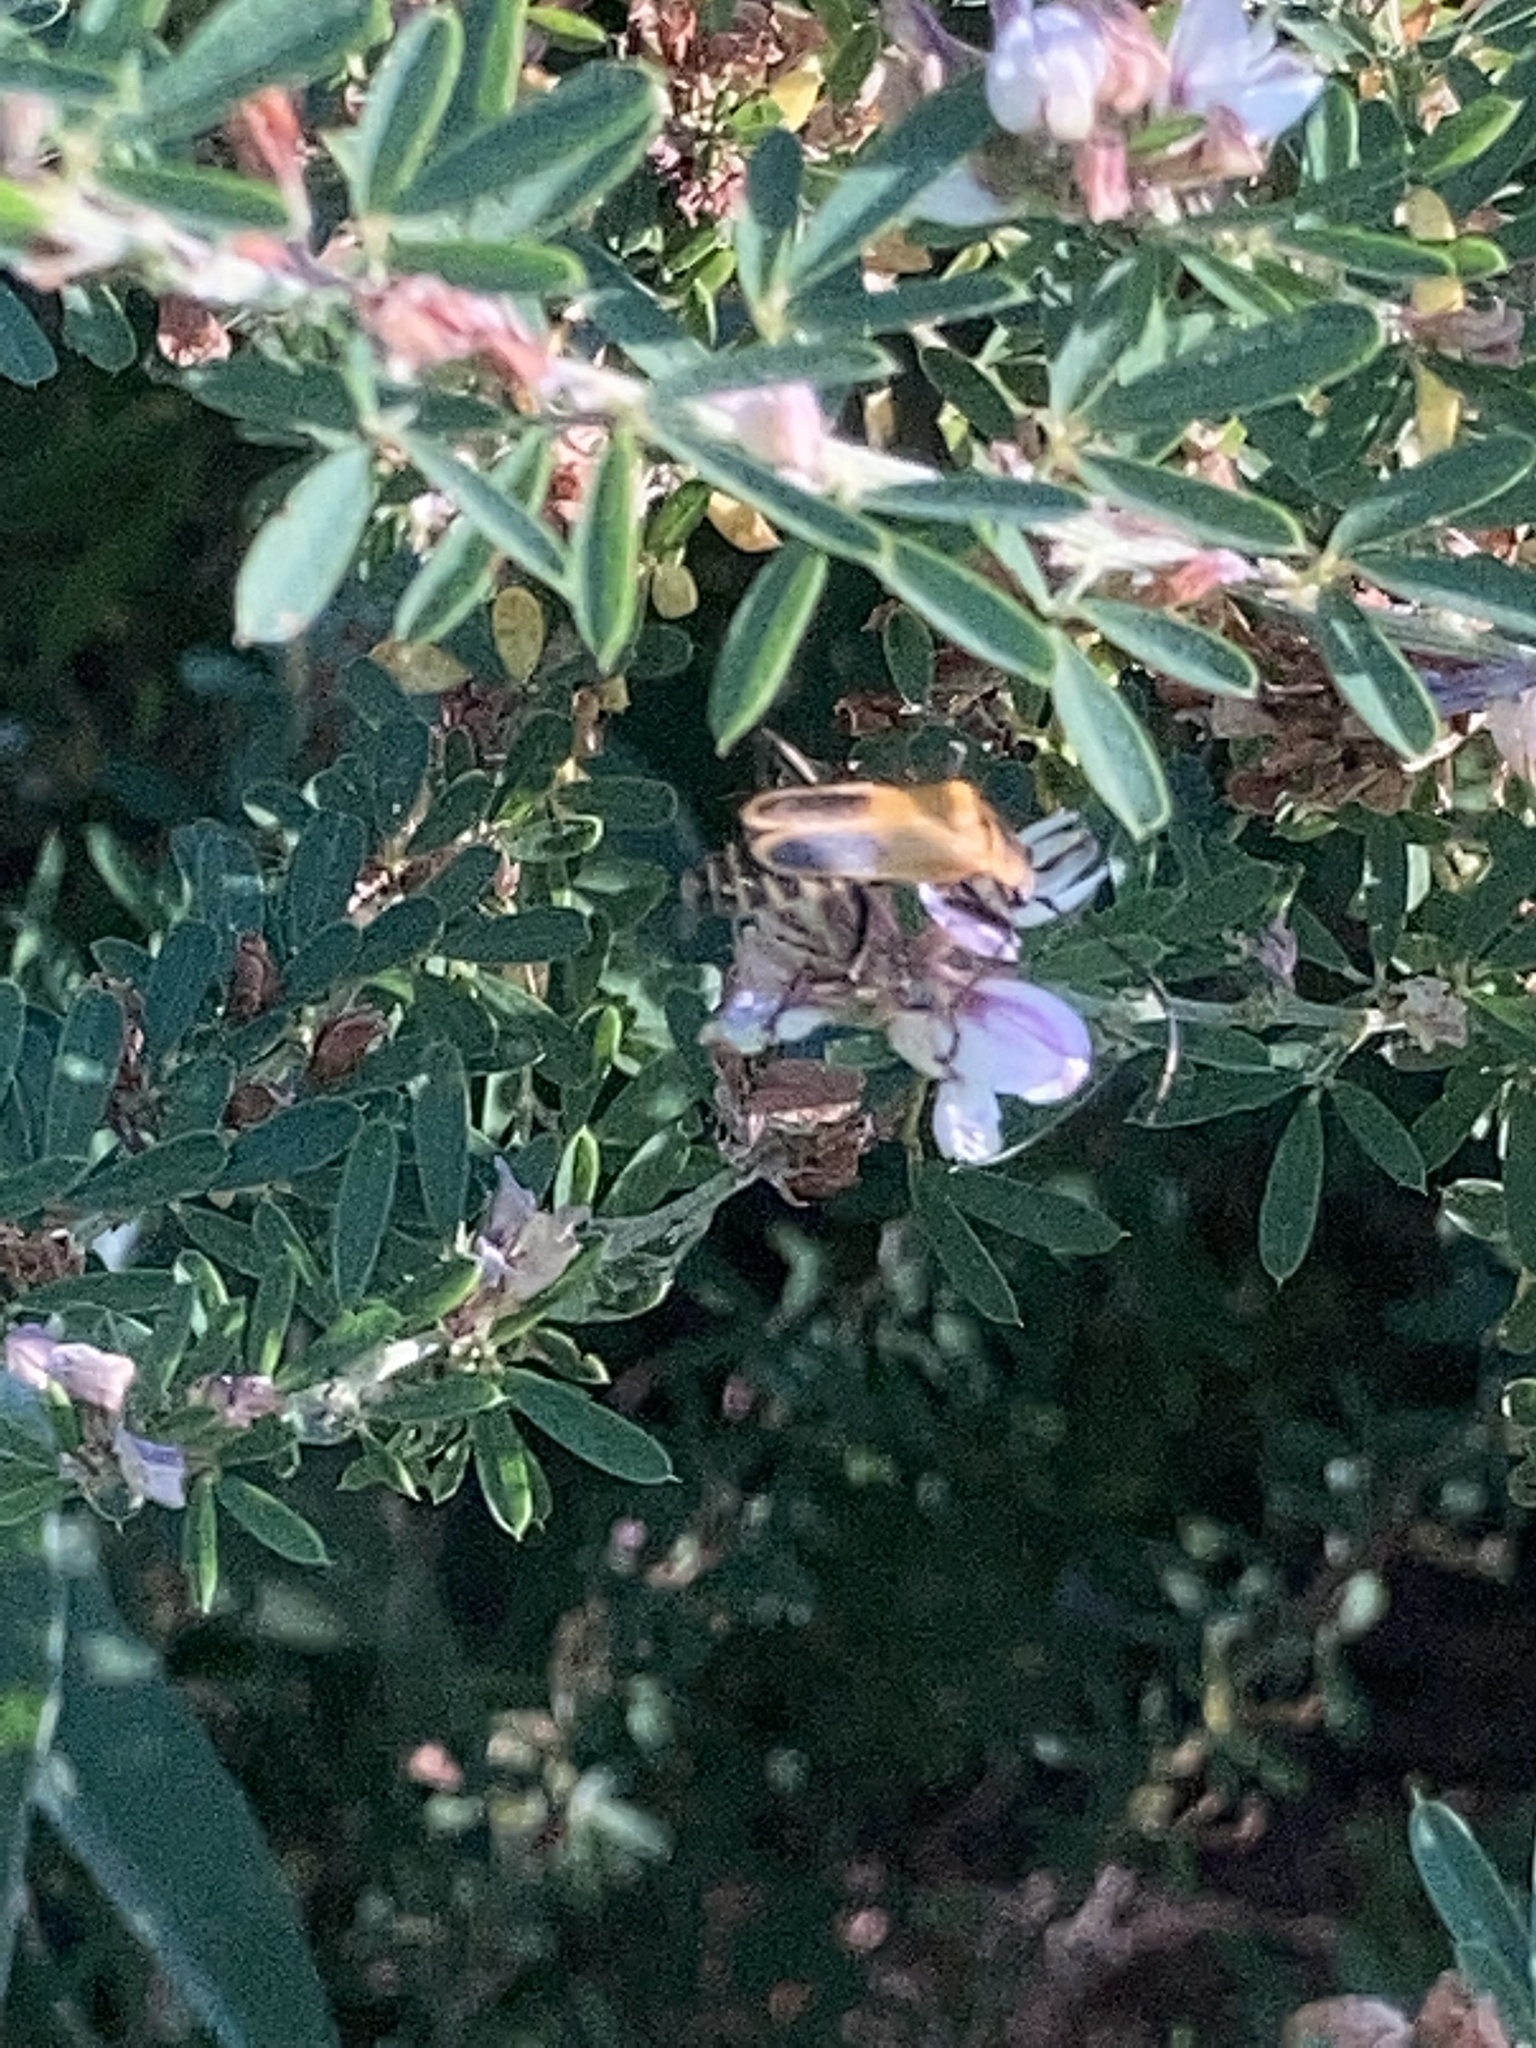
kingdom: Animalia
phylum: Arthropoda
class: Insecta
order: Coleoptera
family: Cantharidae
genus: Chauliognathus
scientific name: Chauliognathus pensylvanicus
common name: Goldenrod soldier beetle
